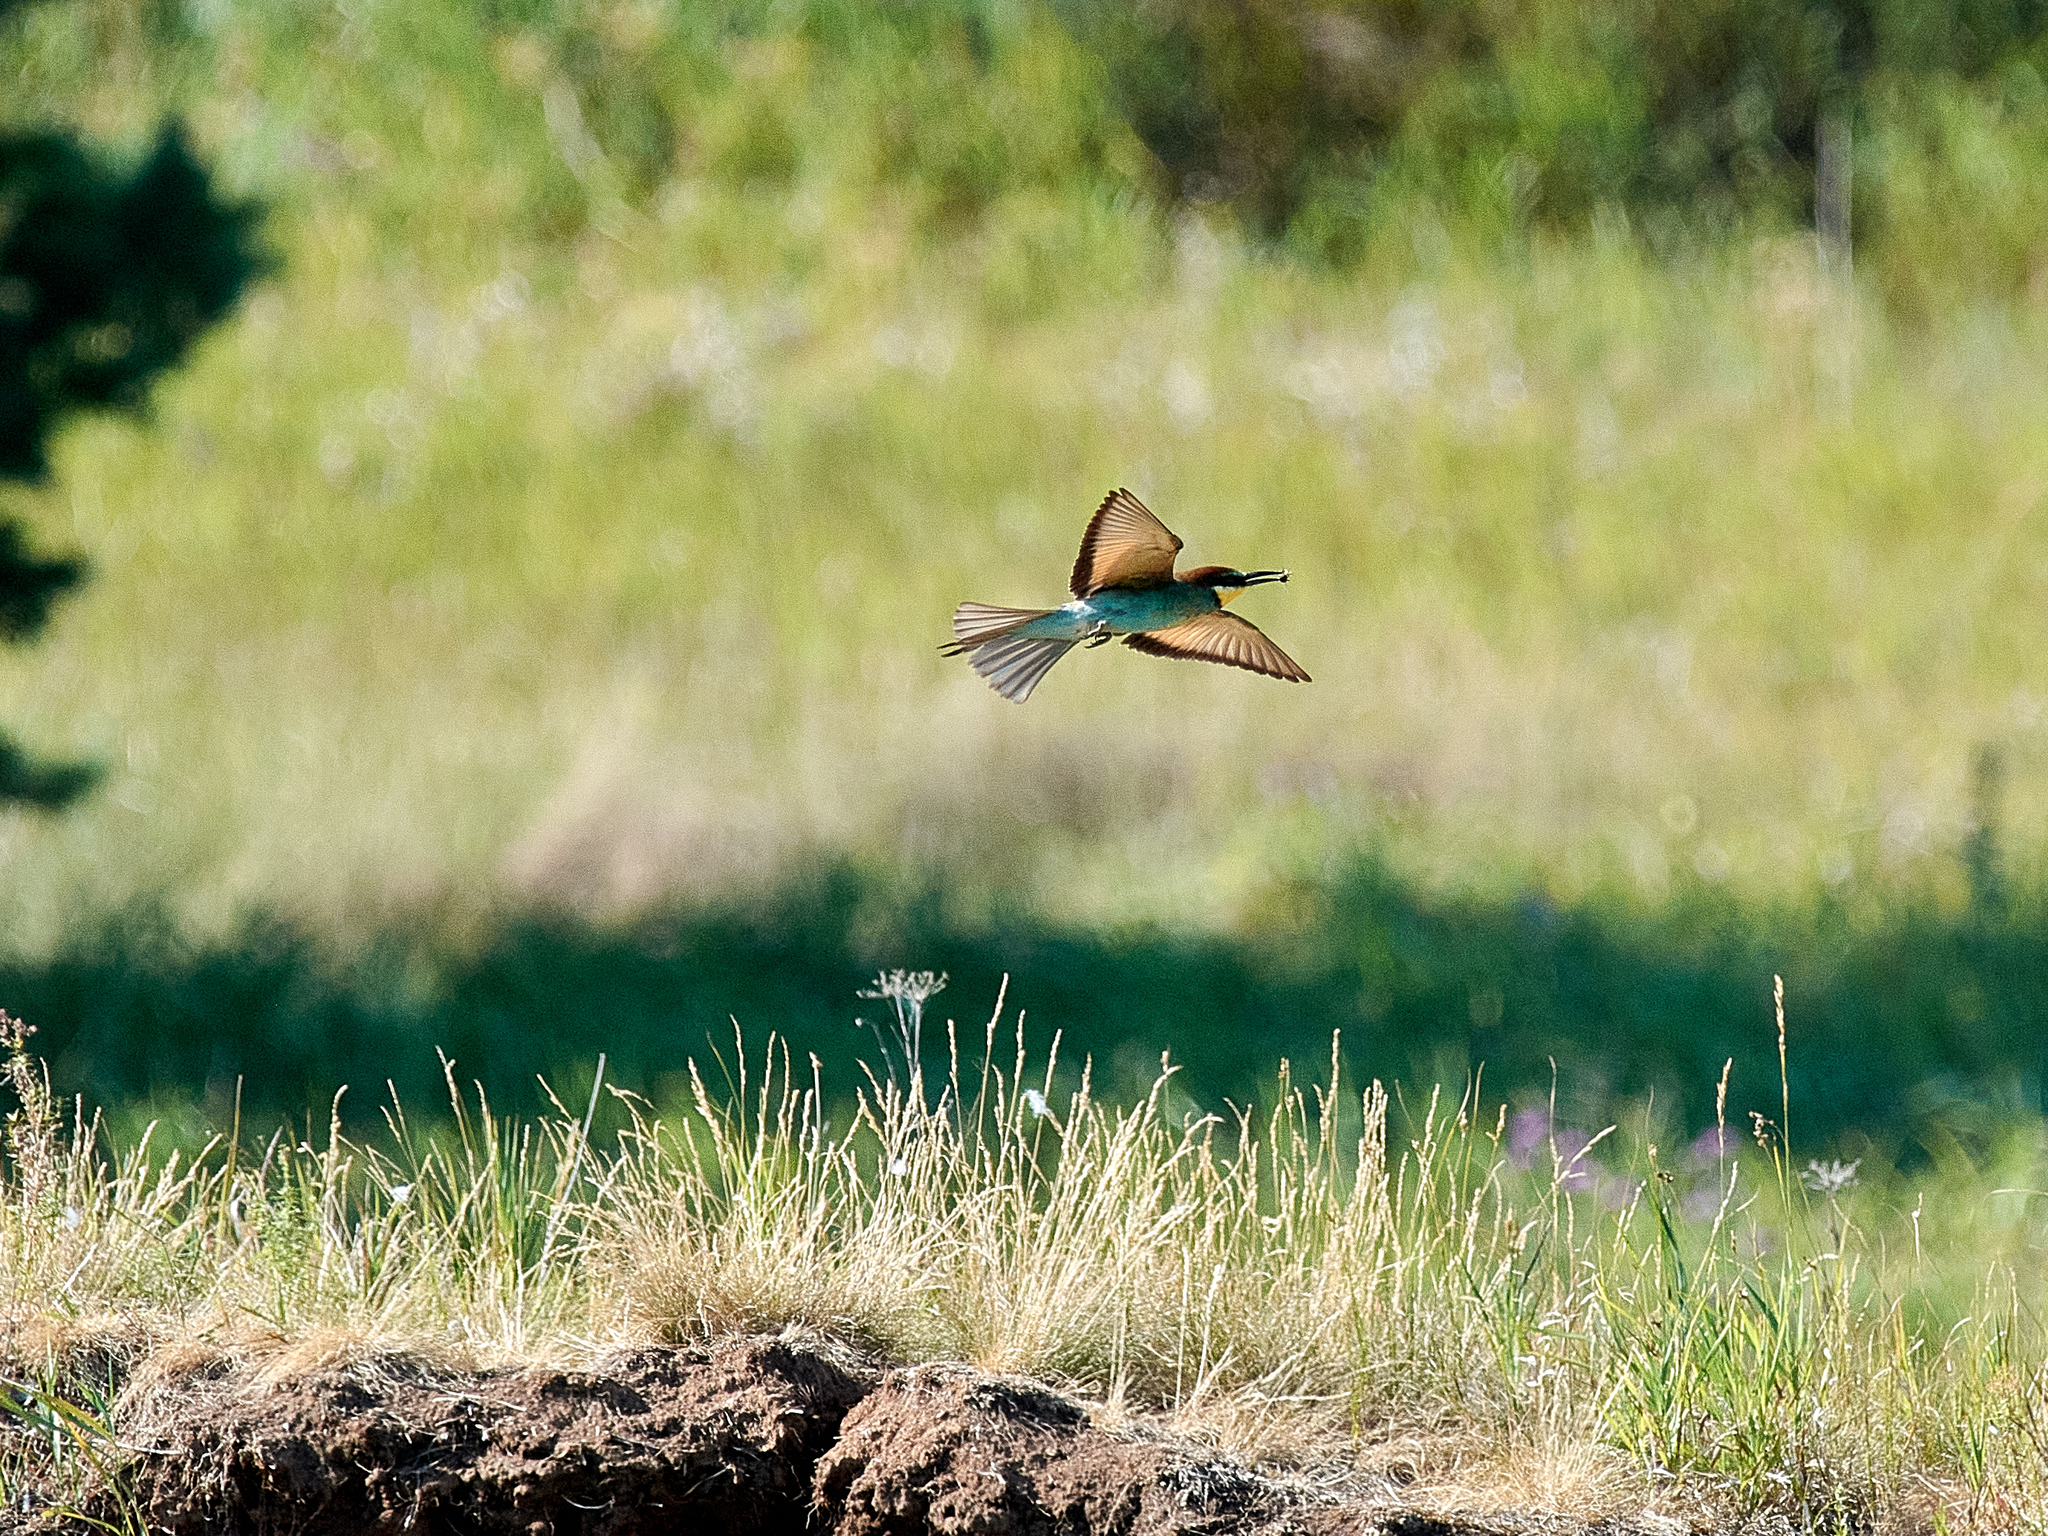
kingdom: Animalia
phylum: Chordata
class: Aves
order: Coraciiformes
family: Meropidae
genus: Merops
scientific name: Merops apiaster
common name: European bee-eater
